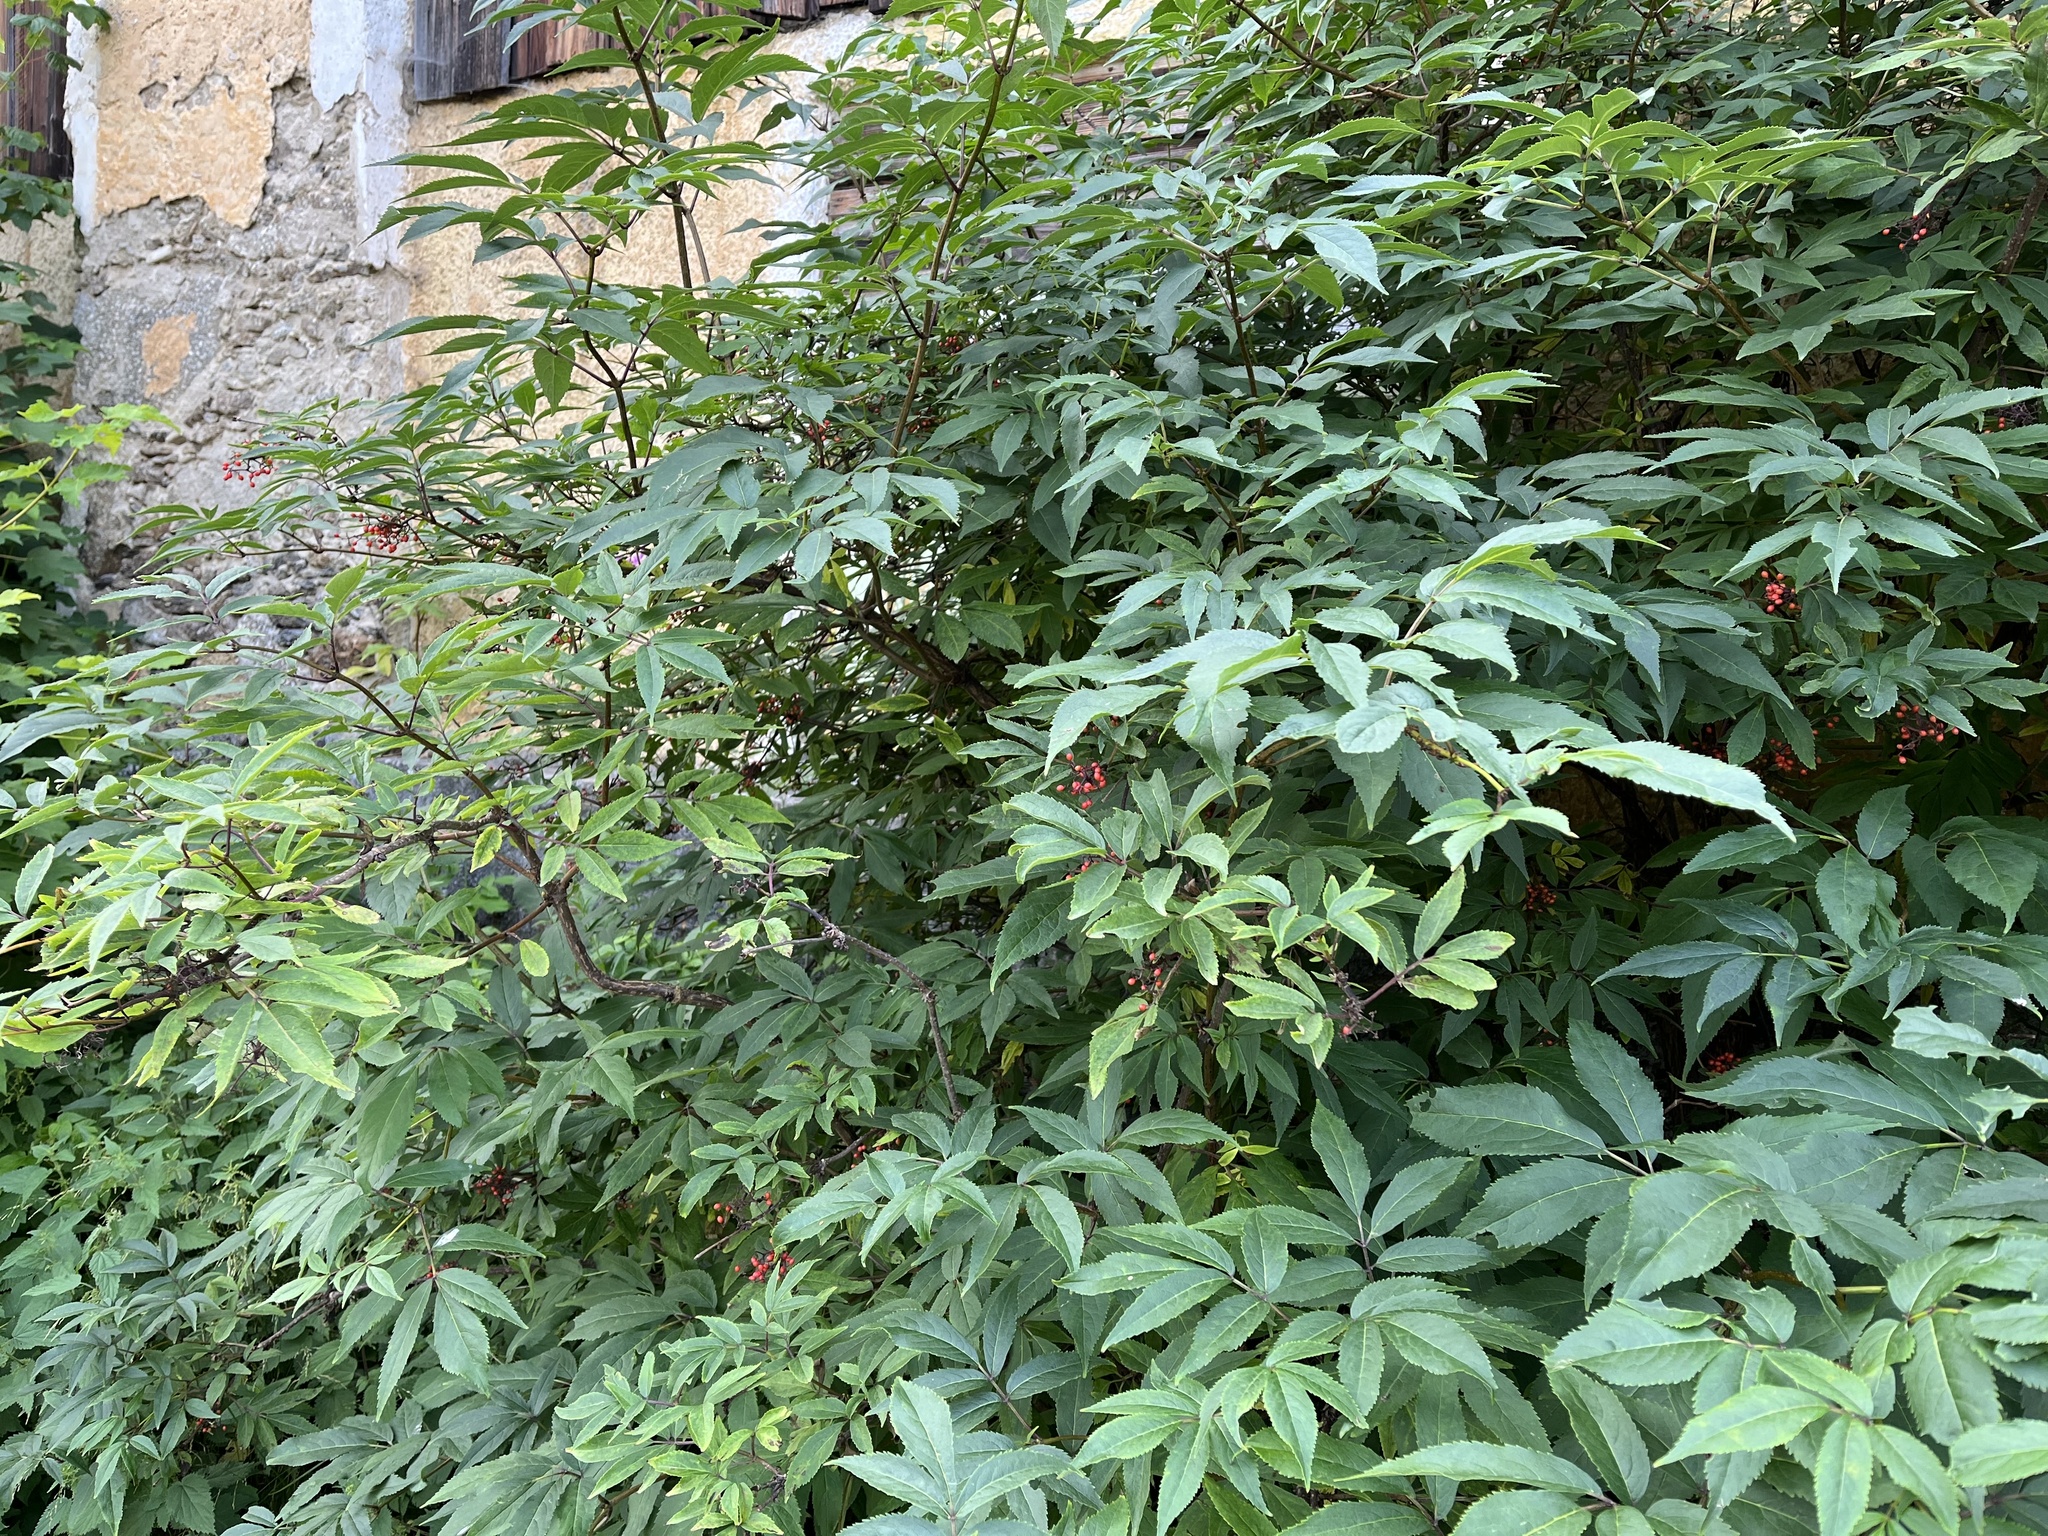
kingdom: Plantae
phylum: Tracheophyta
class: Magnoliopsida
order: Dipsacales
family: Viburnaceae
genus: Sambucus
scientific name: Sambucus racemosa
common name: Red-berried elder
